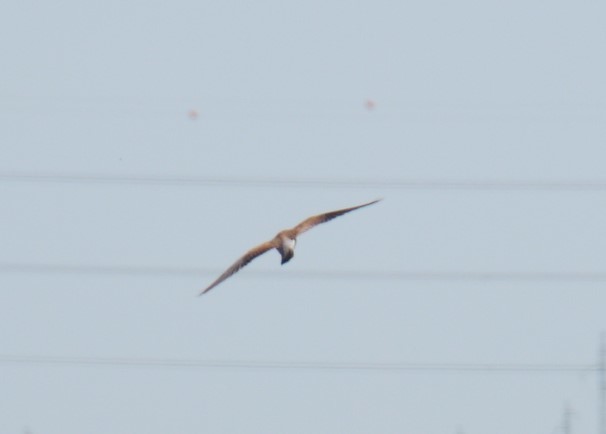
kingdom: Animalia
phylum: Chordata
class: Aves
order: Falconiformes
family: Falconidae
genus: Falco
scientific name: Falco tinnunculus
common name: Common kestrel
